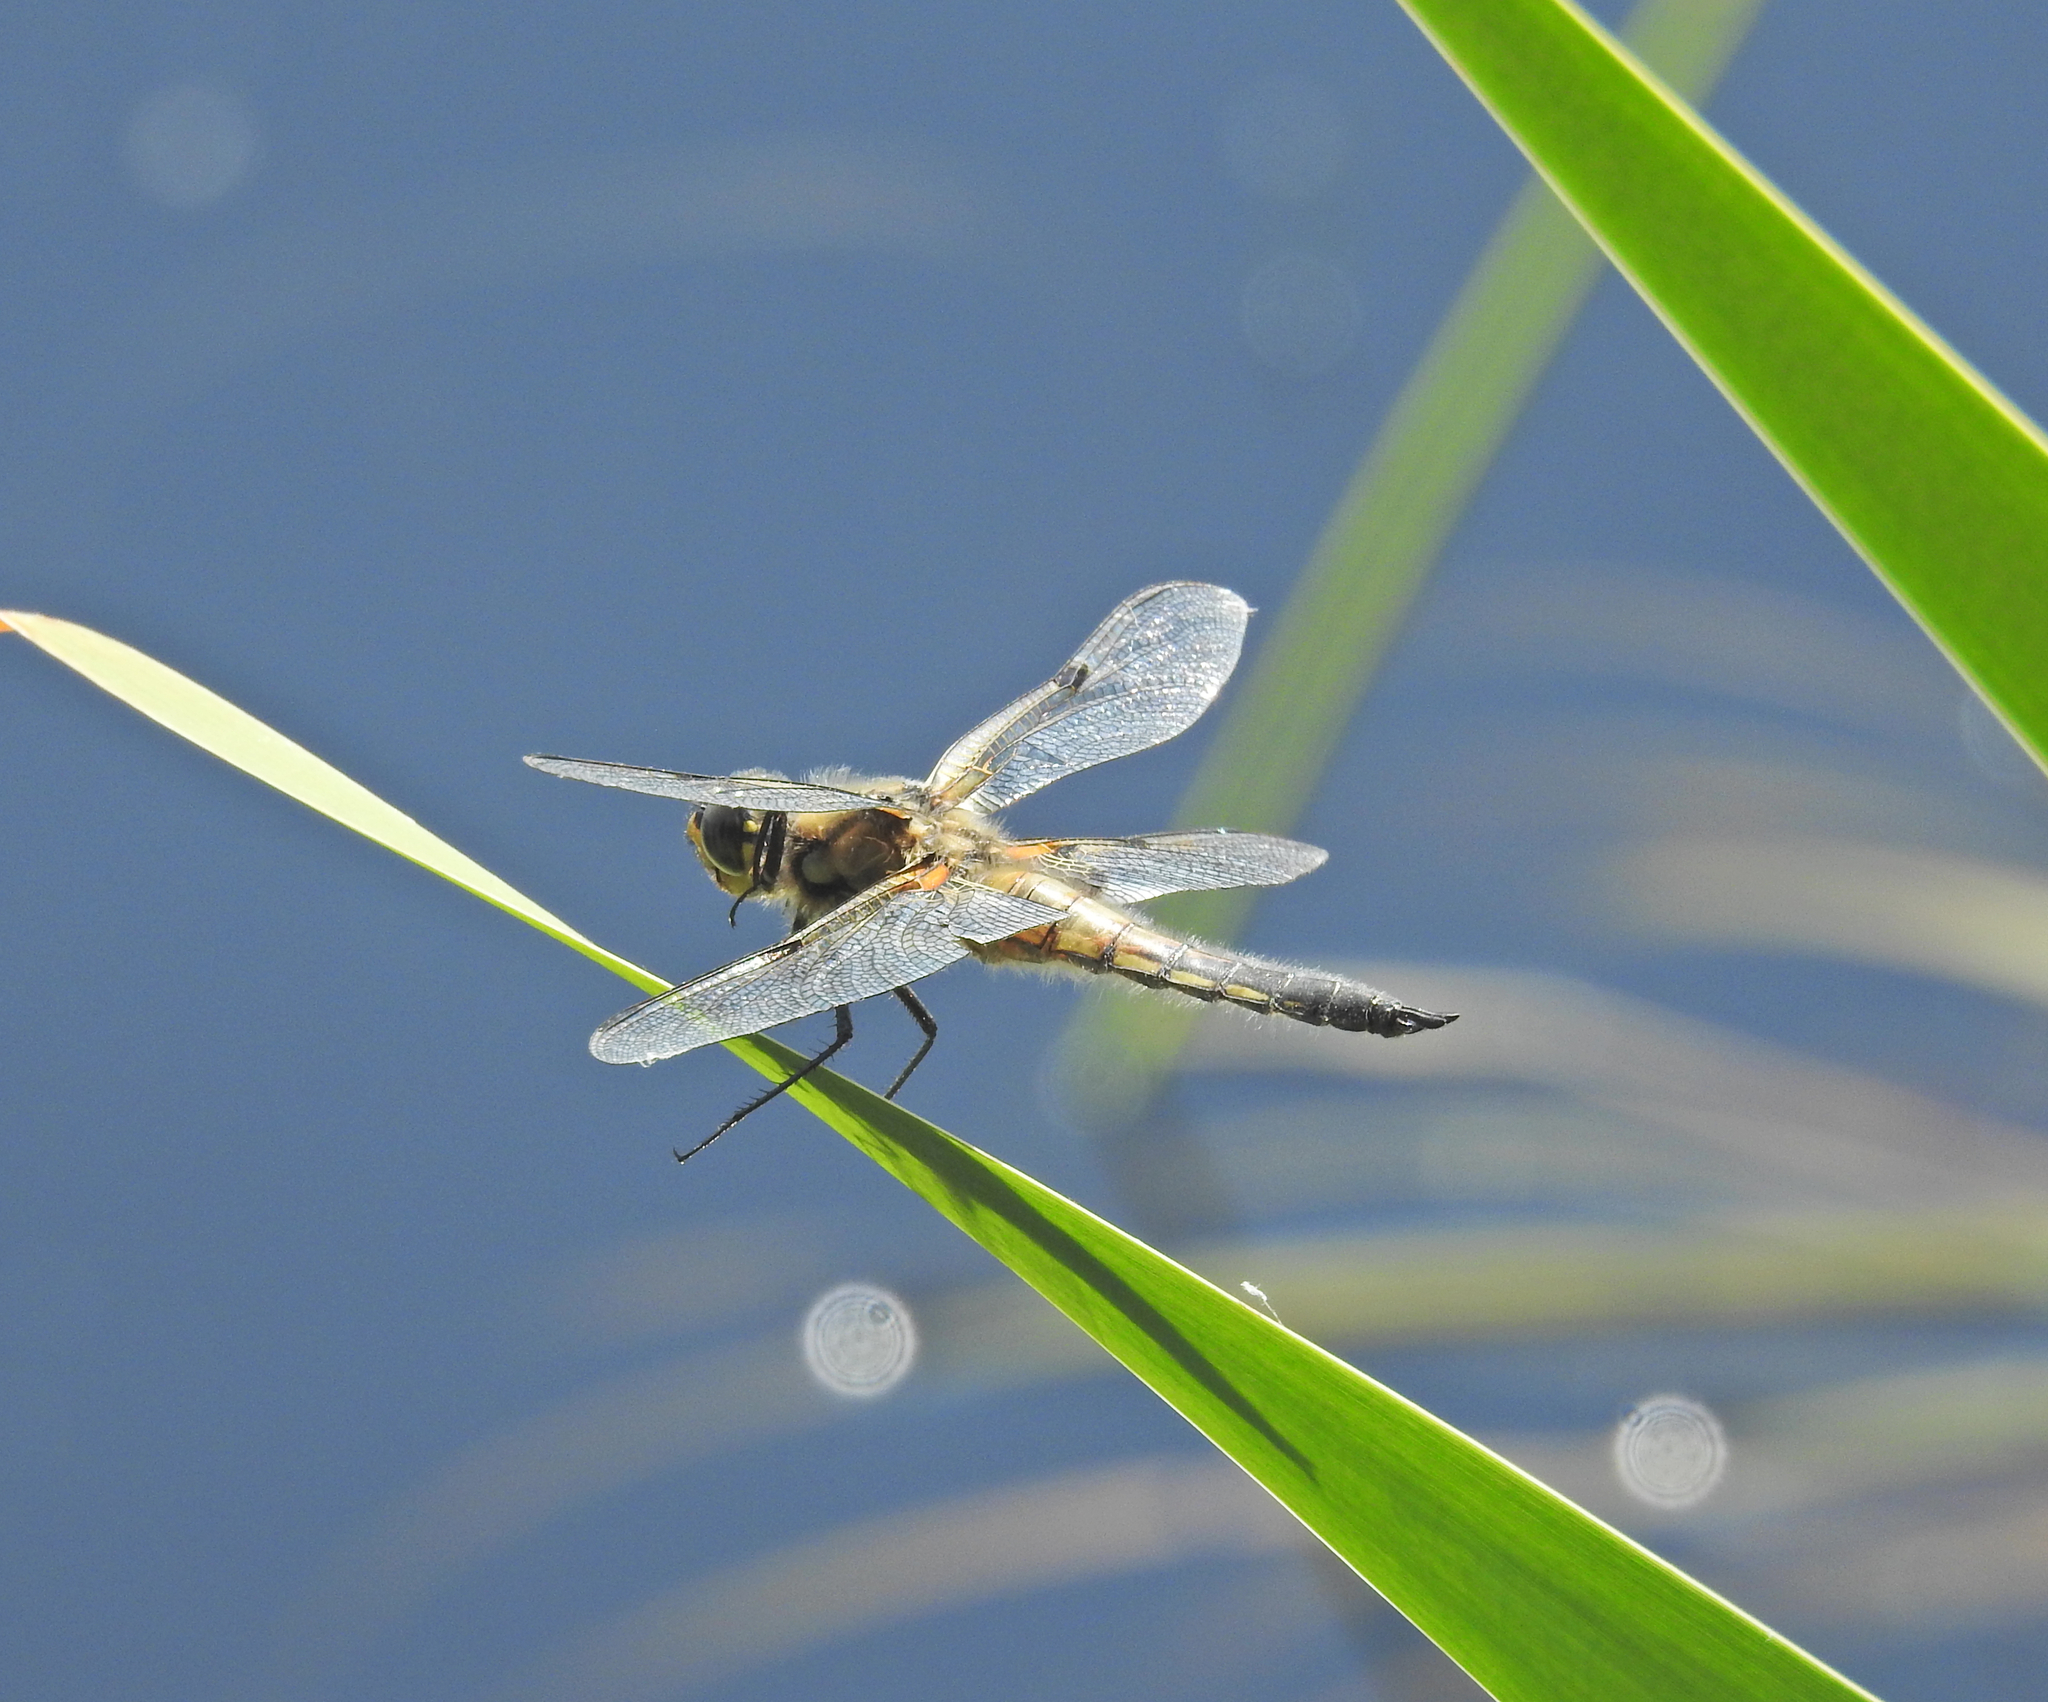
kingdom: Animalia
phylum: Arthropoda
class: Insecta
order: Odonata
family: Libellulidae
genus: Libellula
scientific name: Libellula quadrimaculata
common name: Four-spotted chaser
